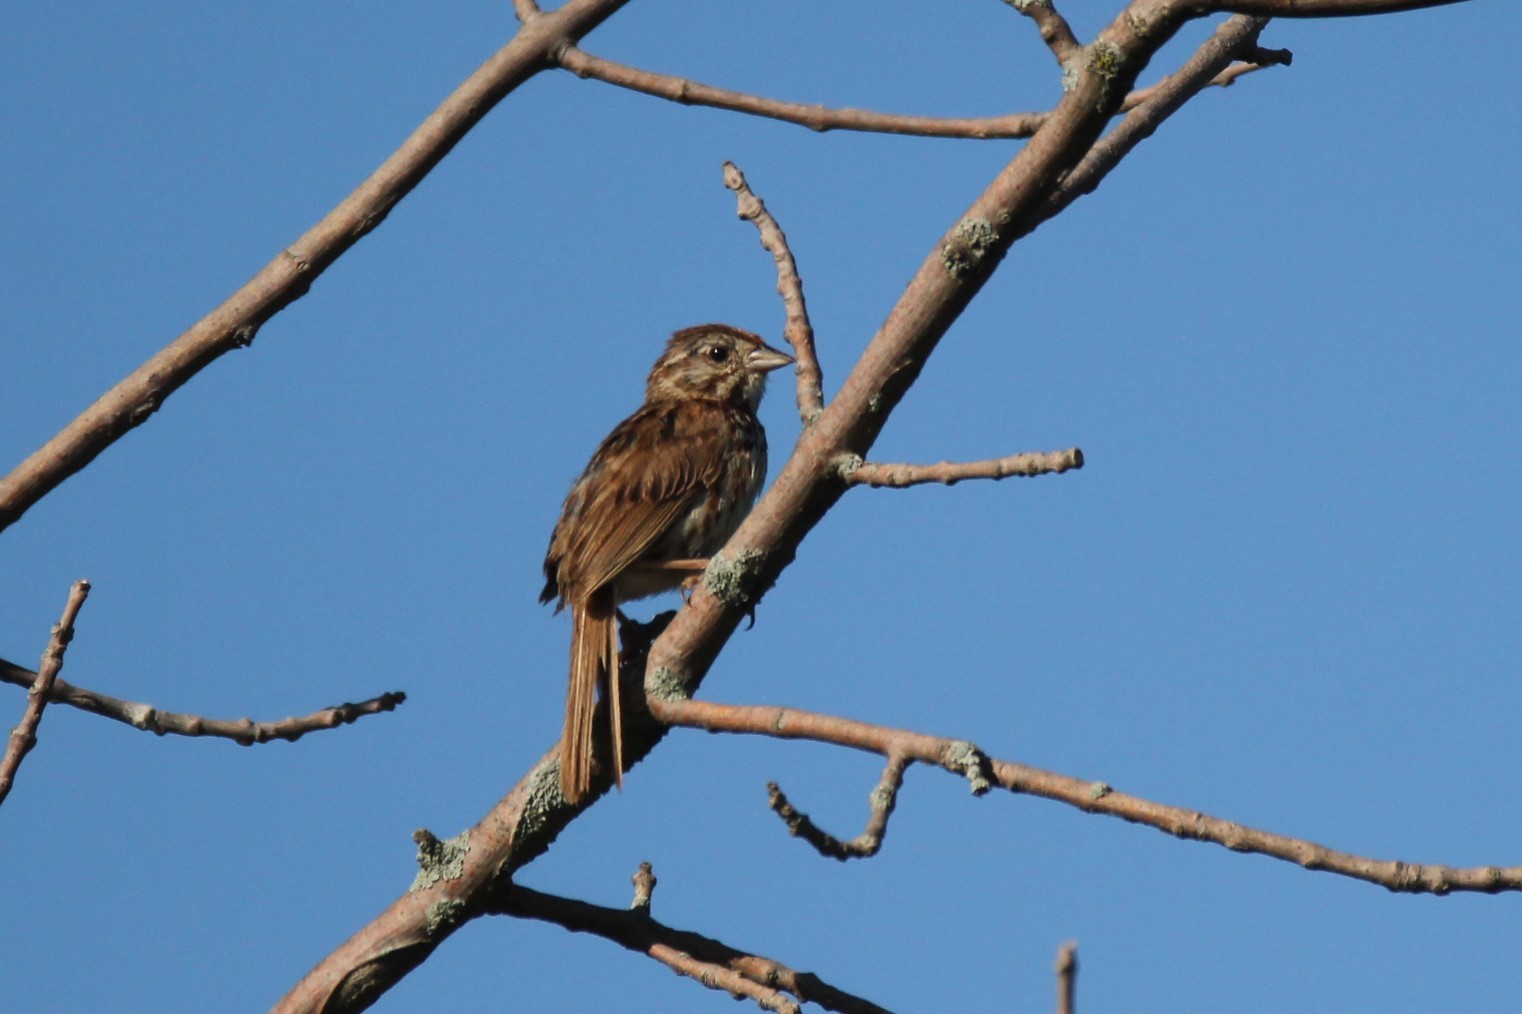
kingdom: Animalia
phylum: Chordata
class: Aves
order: Passeriformes
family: Passerellidae
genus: Melospiza
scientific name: Melospiza melodia
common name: Song sparrow
